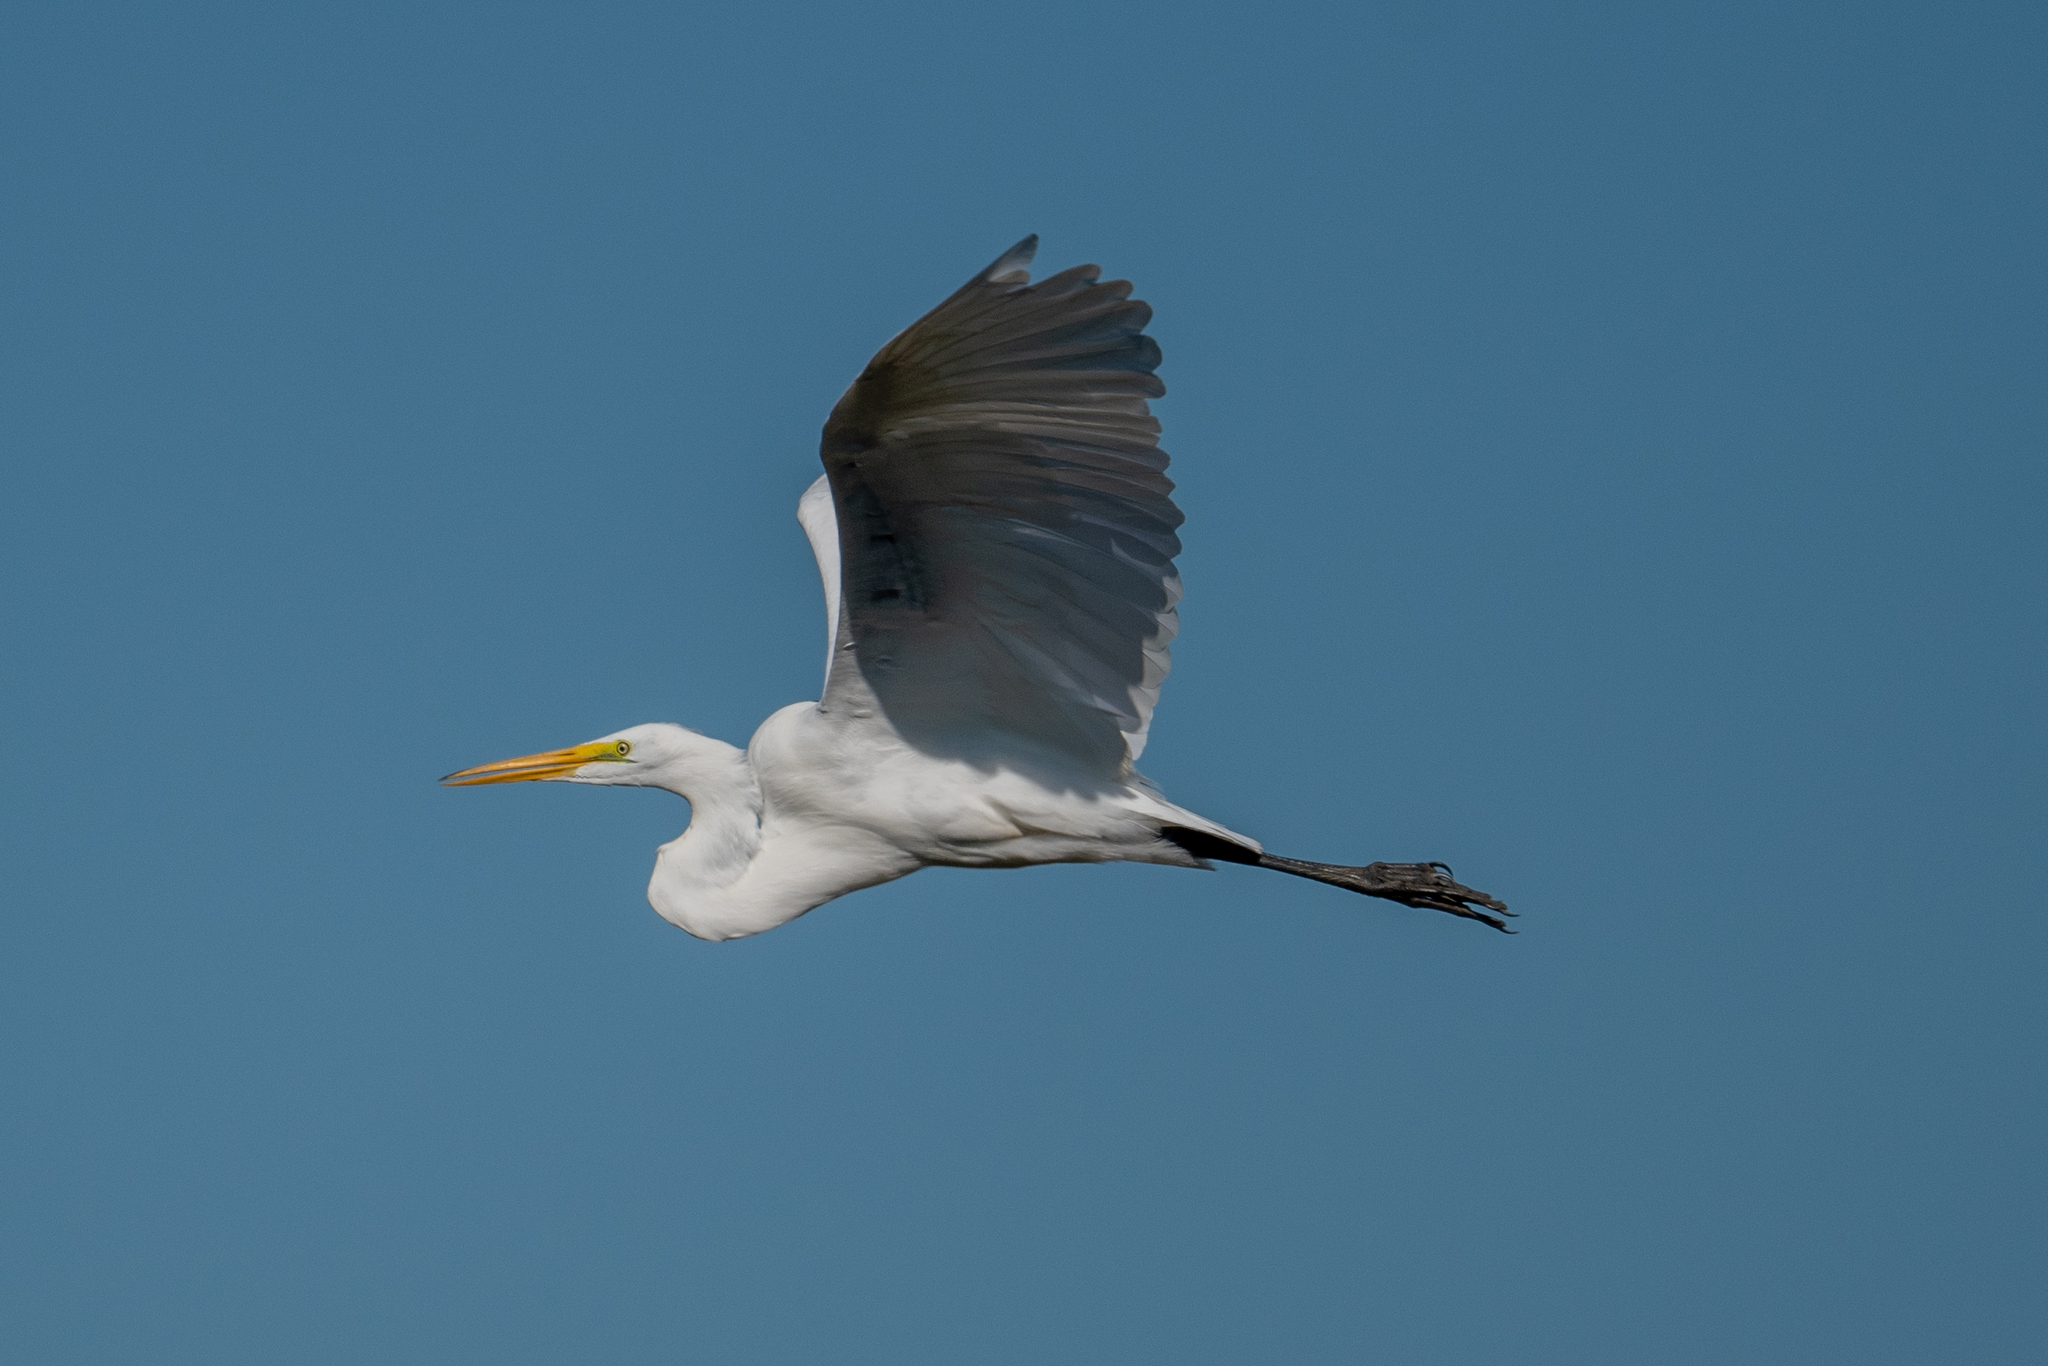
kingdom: Animalia
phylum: Chordata
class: Aves
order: Pelecaniformes
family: Ardeidae
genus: Ardea
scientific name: Ardea alba
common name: Great egret
